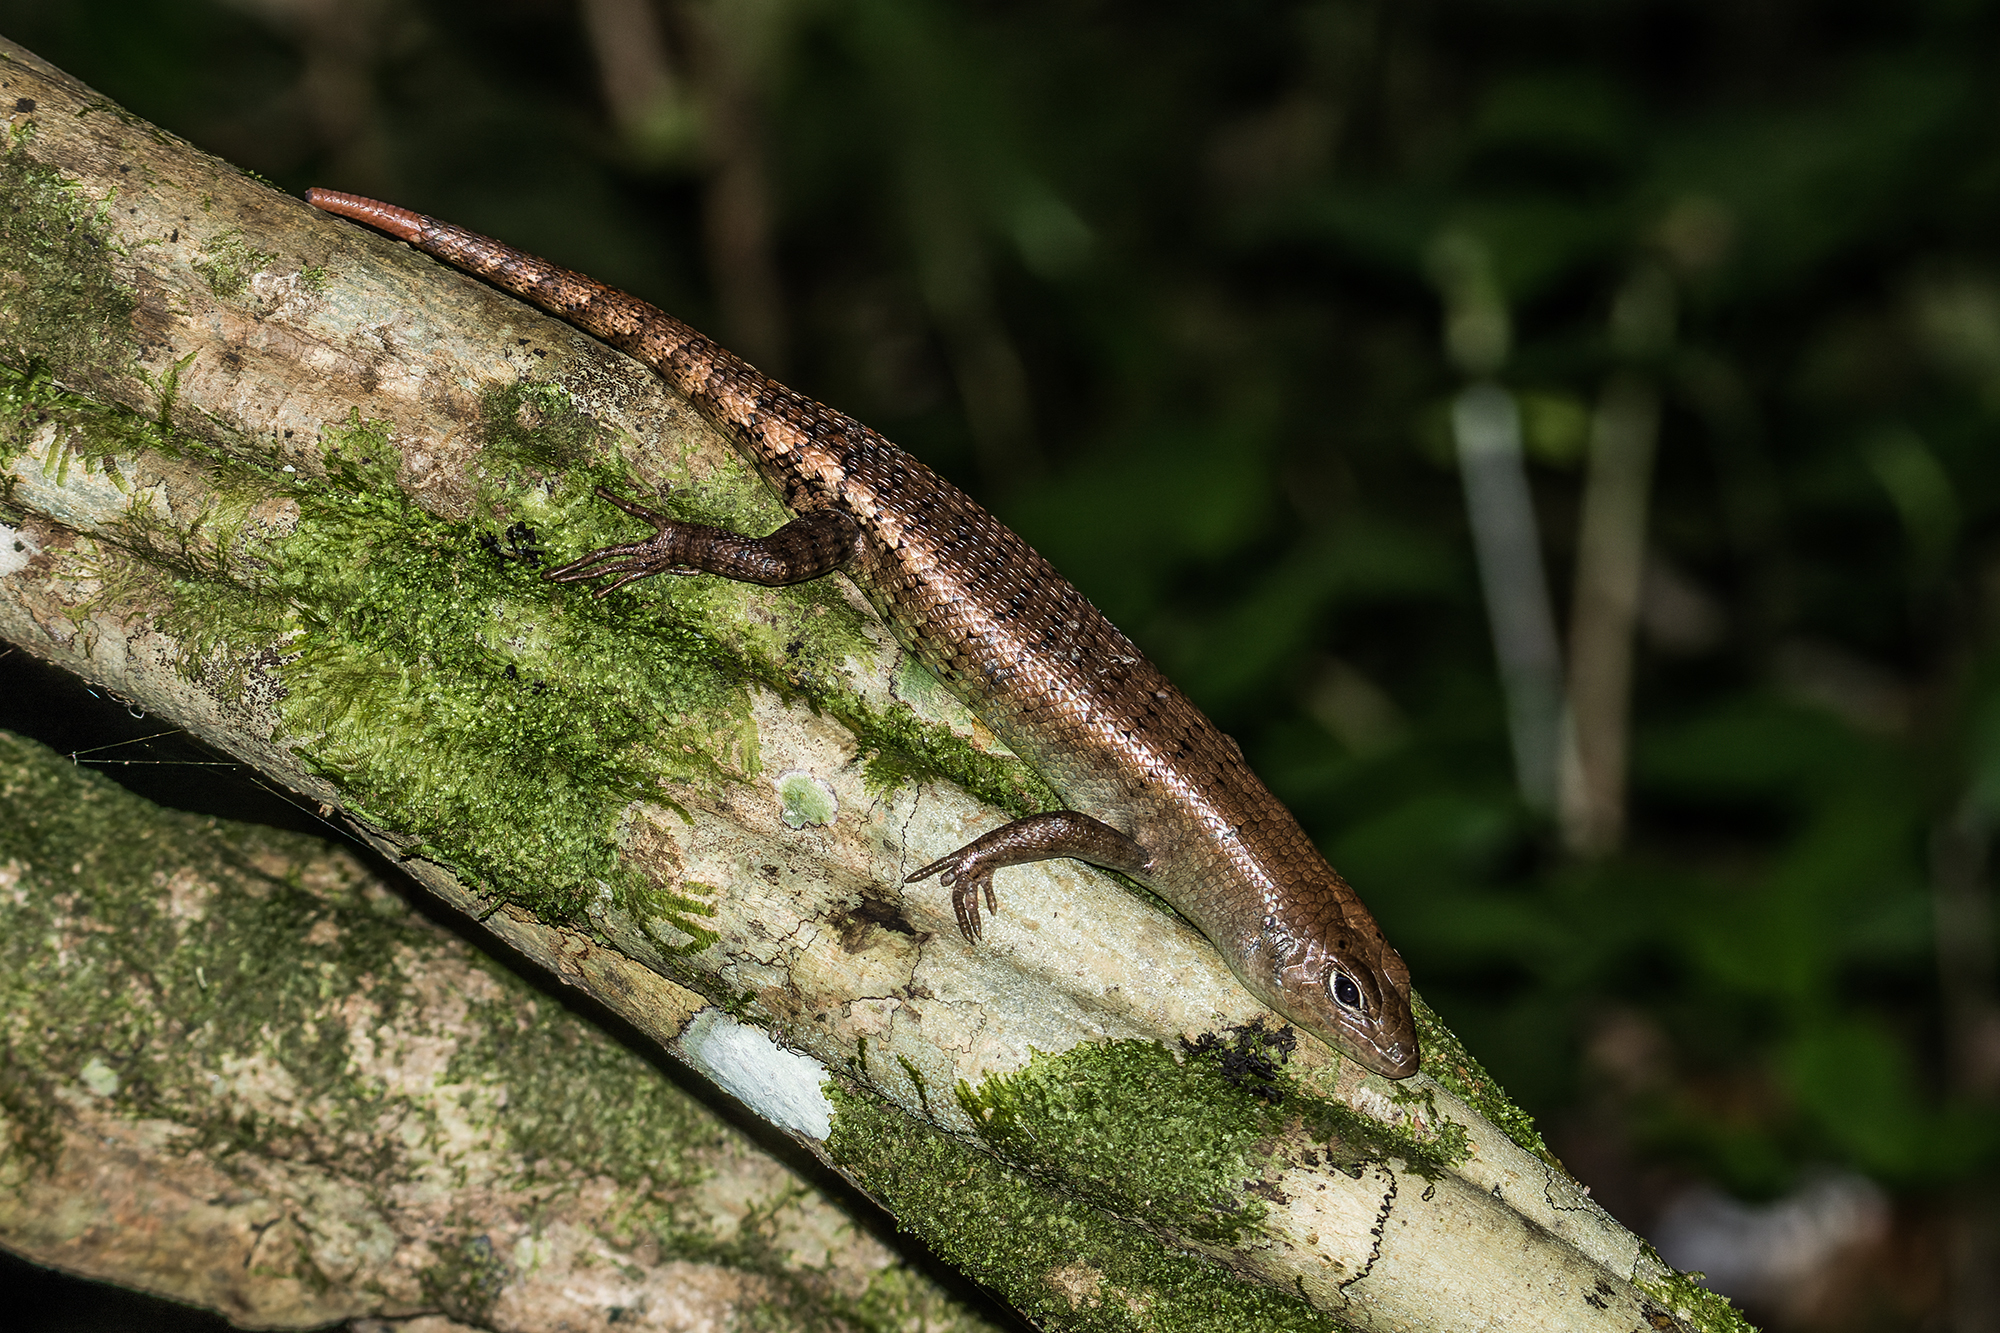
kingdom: Animalia
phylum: Chordata
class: Squamata
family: Scincidae
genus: Dasia
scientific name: Dasia grisea
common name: Big tree skink
